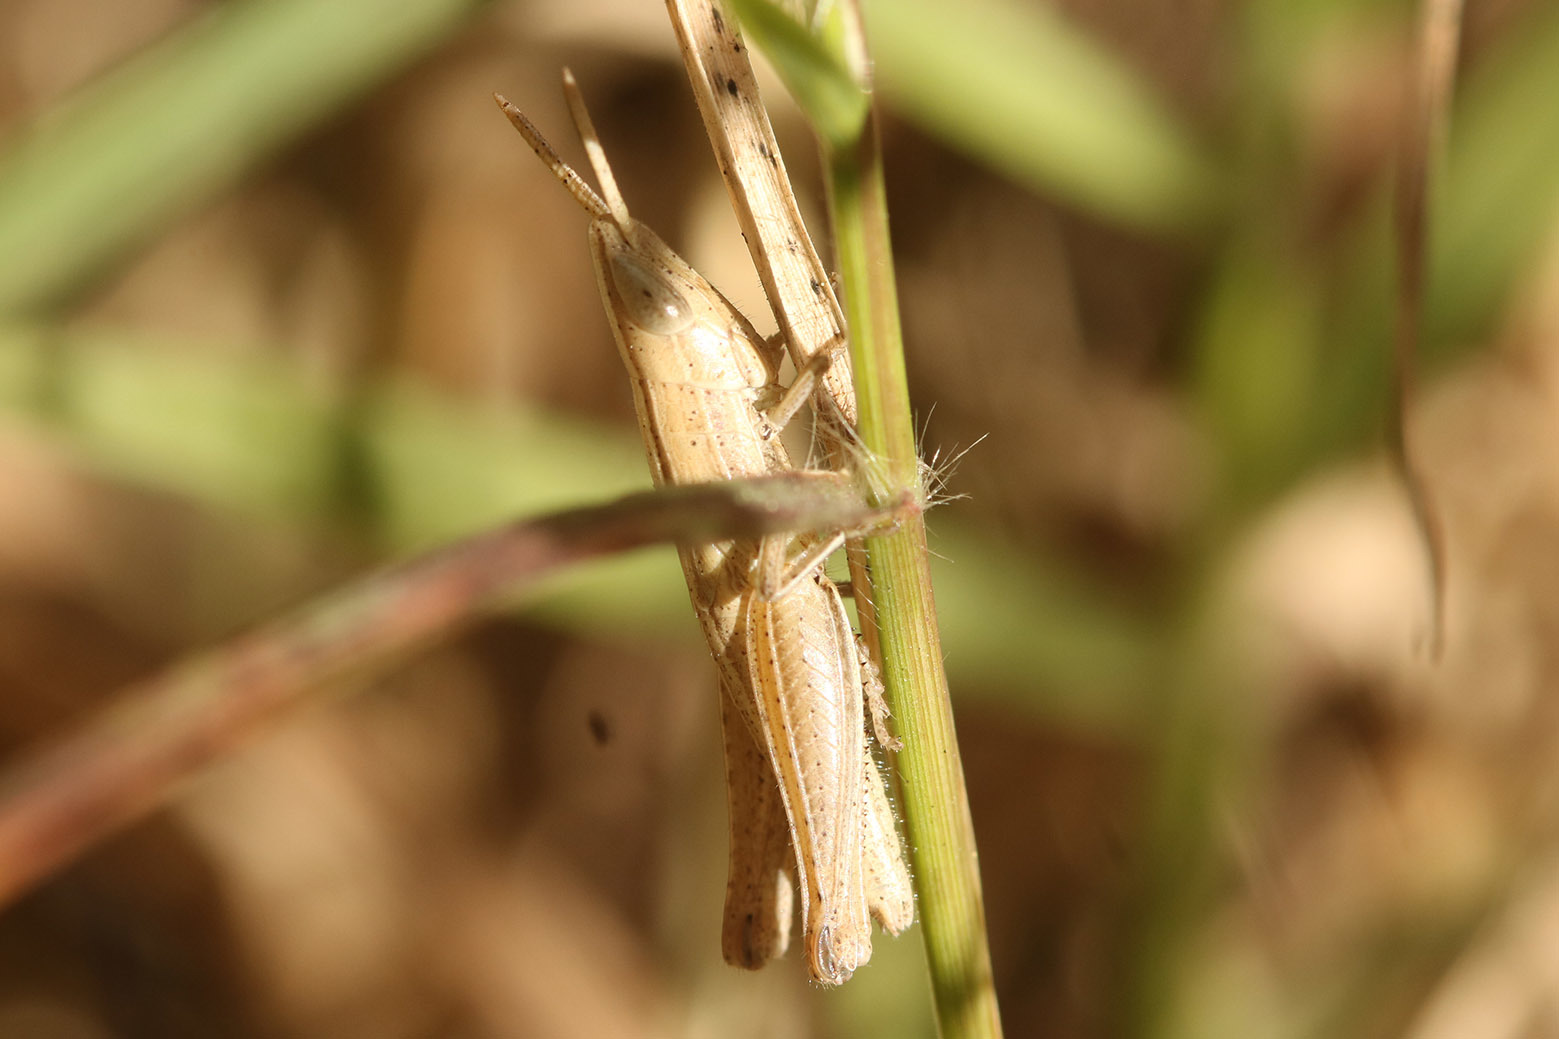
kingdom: Animalia
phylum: Arthropoda
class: Insecta
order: Orthoptera
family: Acrididae
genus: Laplatacris
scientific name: Laplatacris dispar
